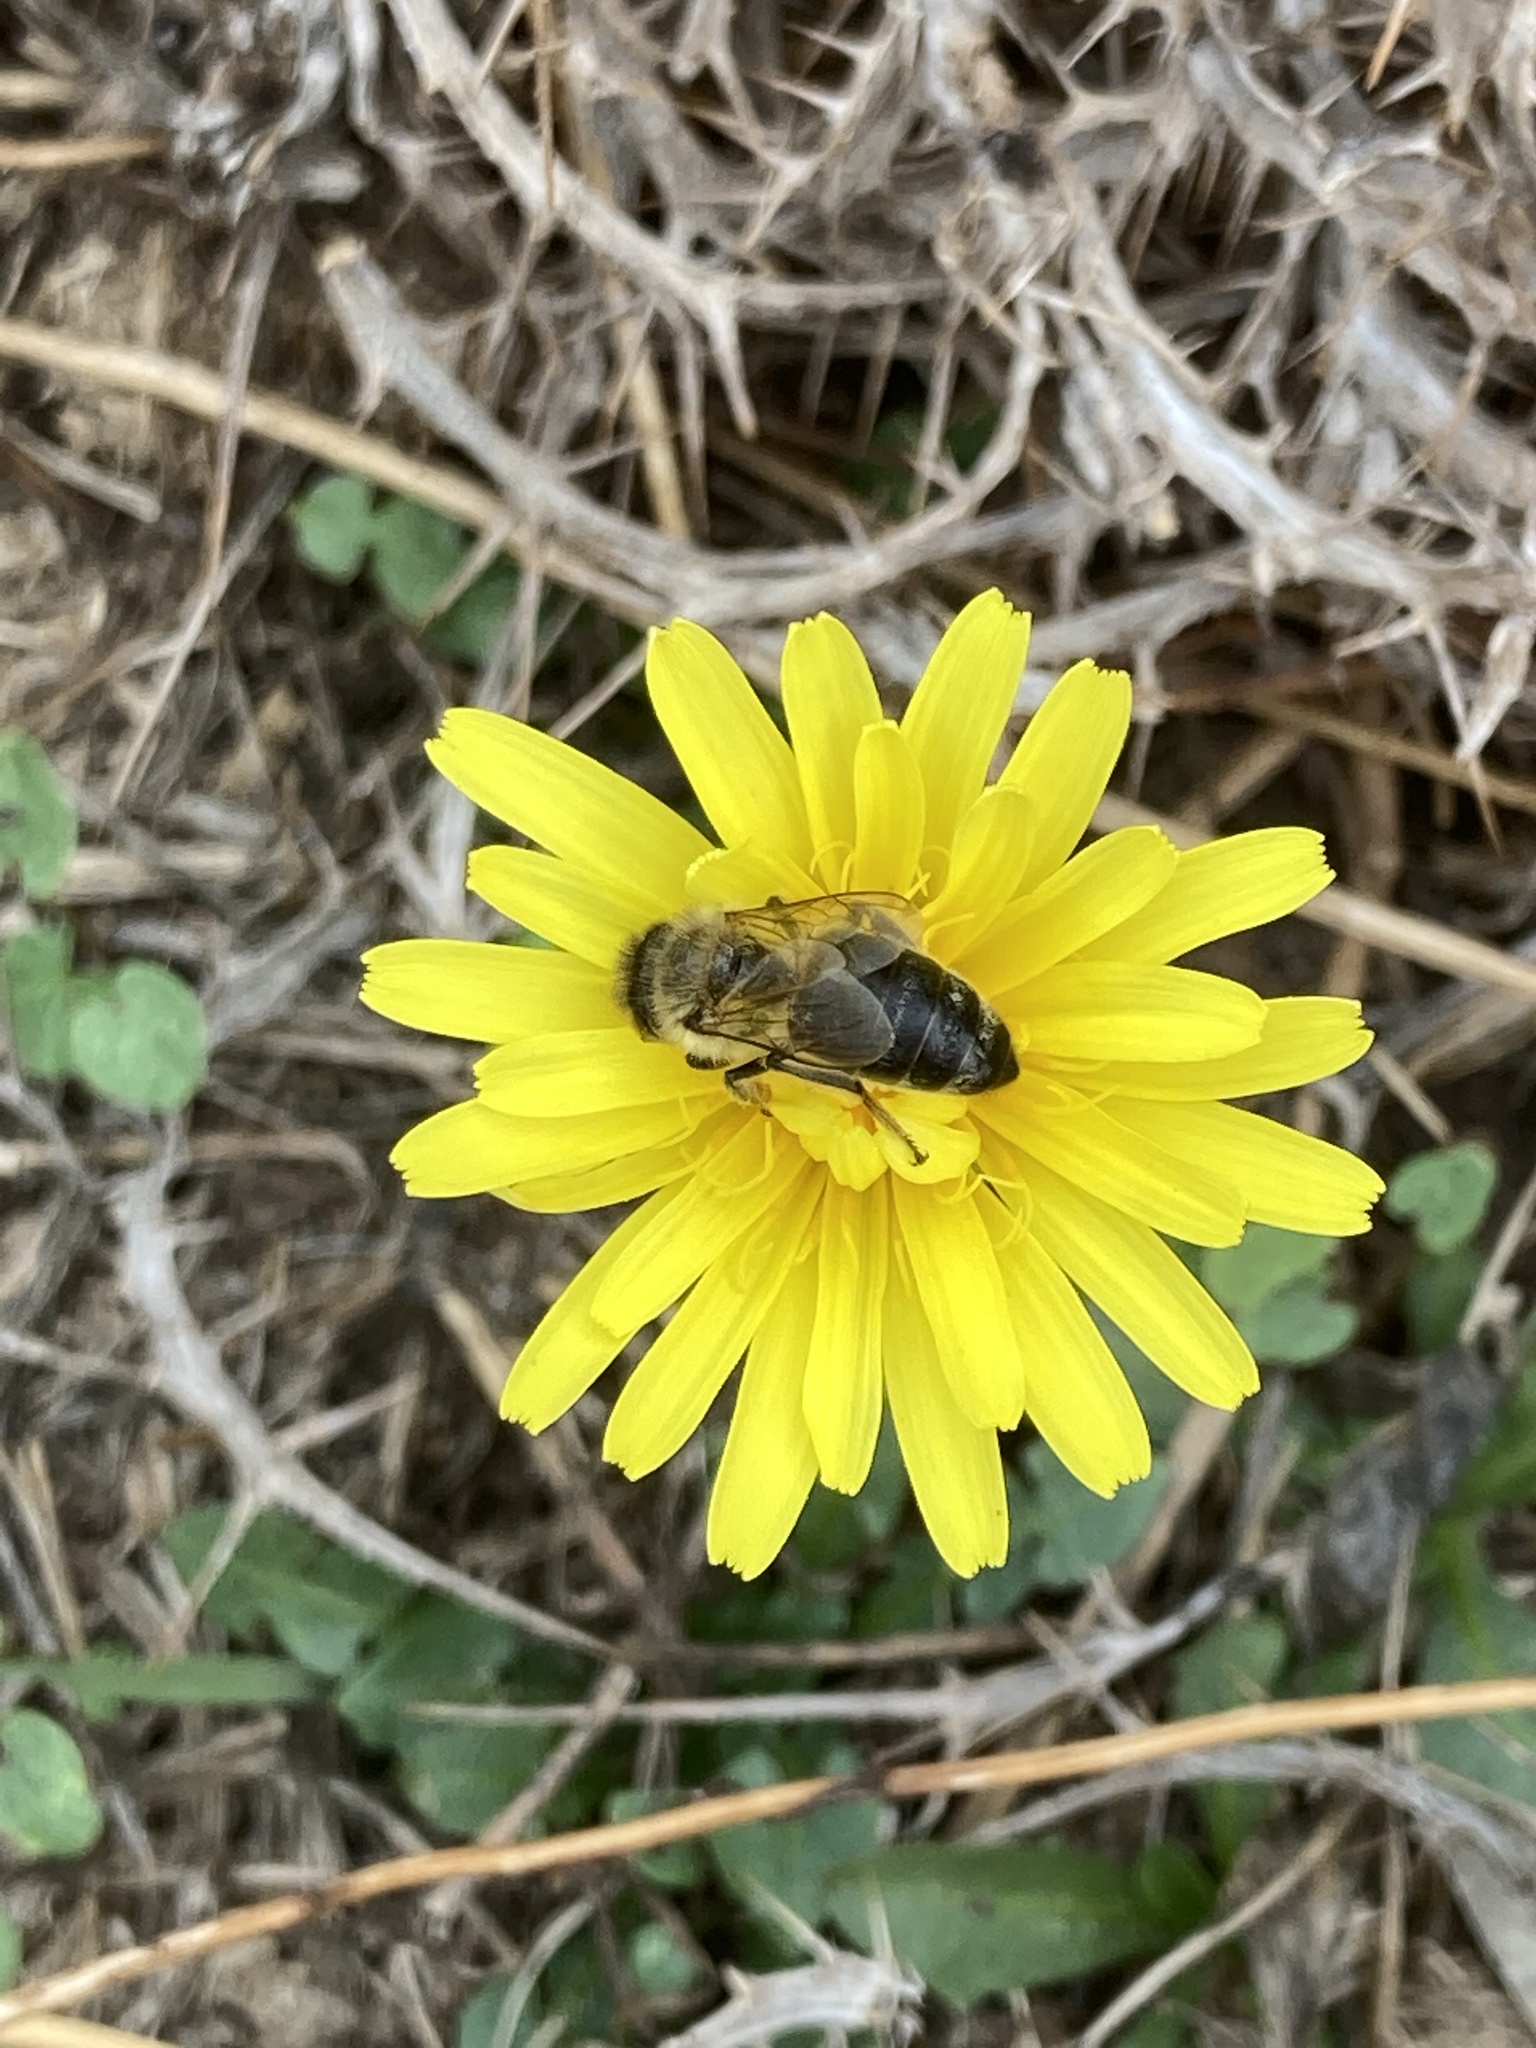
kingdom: Animalia
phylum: Arthropoda
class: Insecta
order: Hymenoptera
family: Apidae
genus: Apis
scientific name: Apis mellifera
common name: Honey bee
